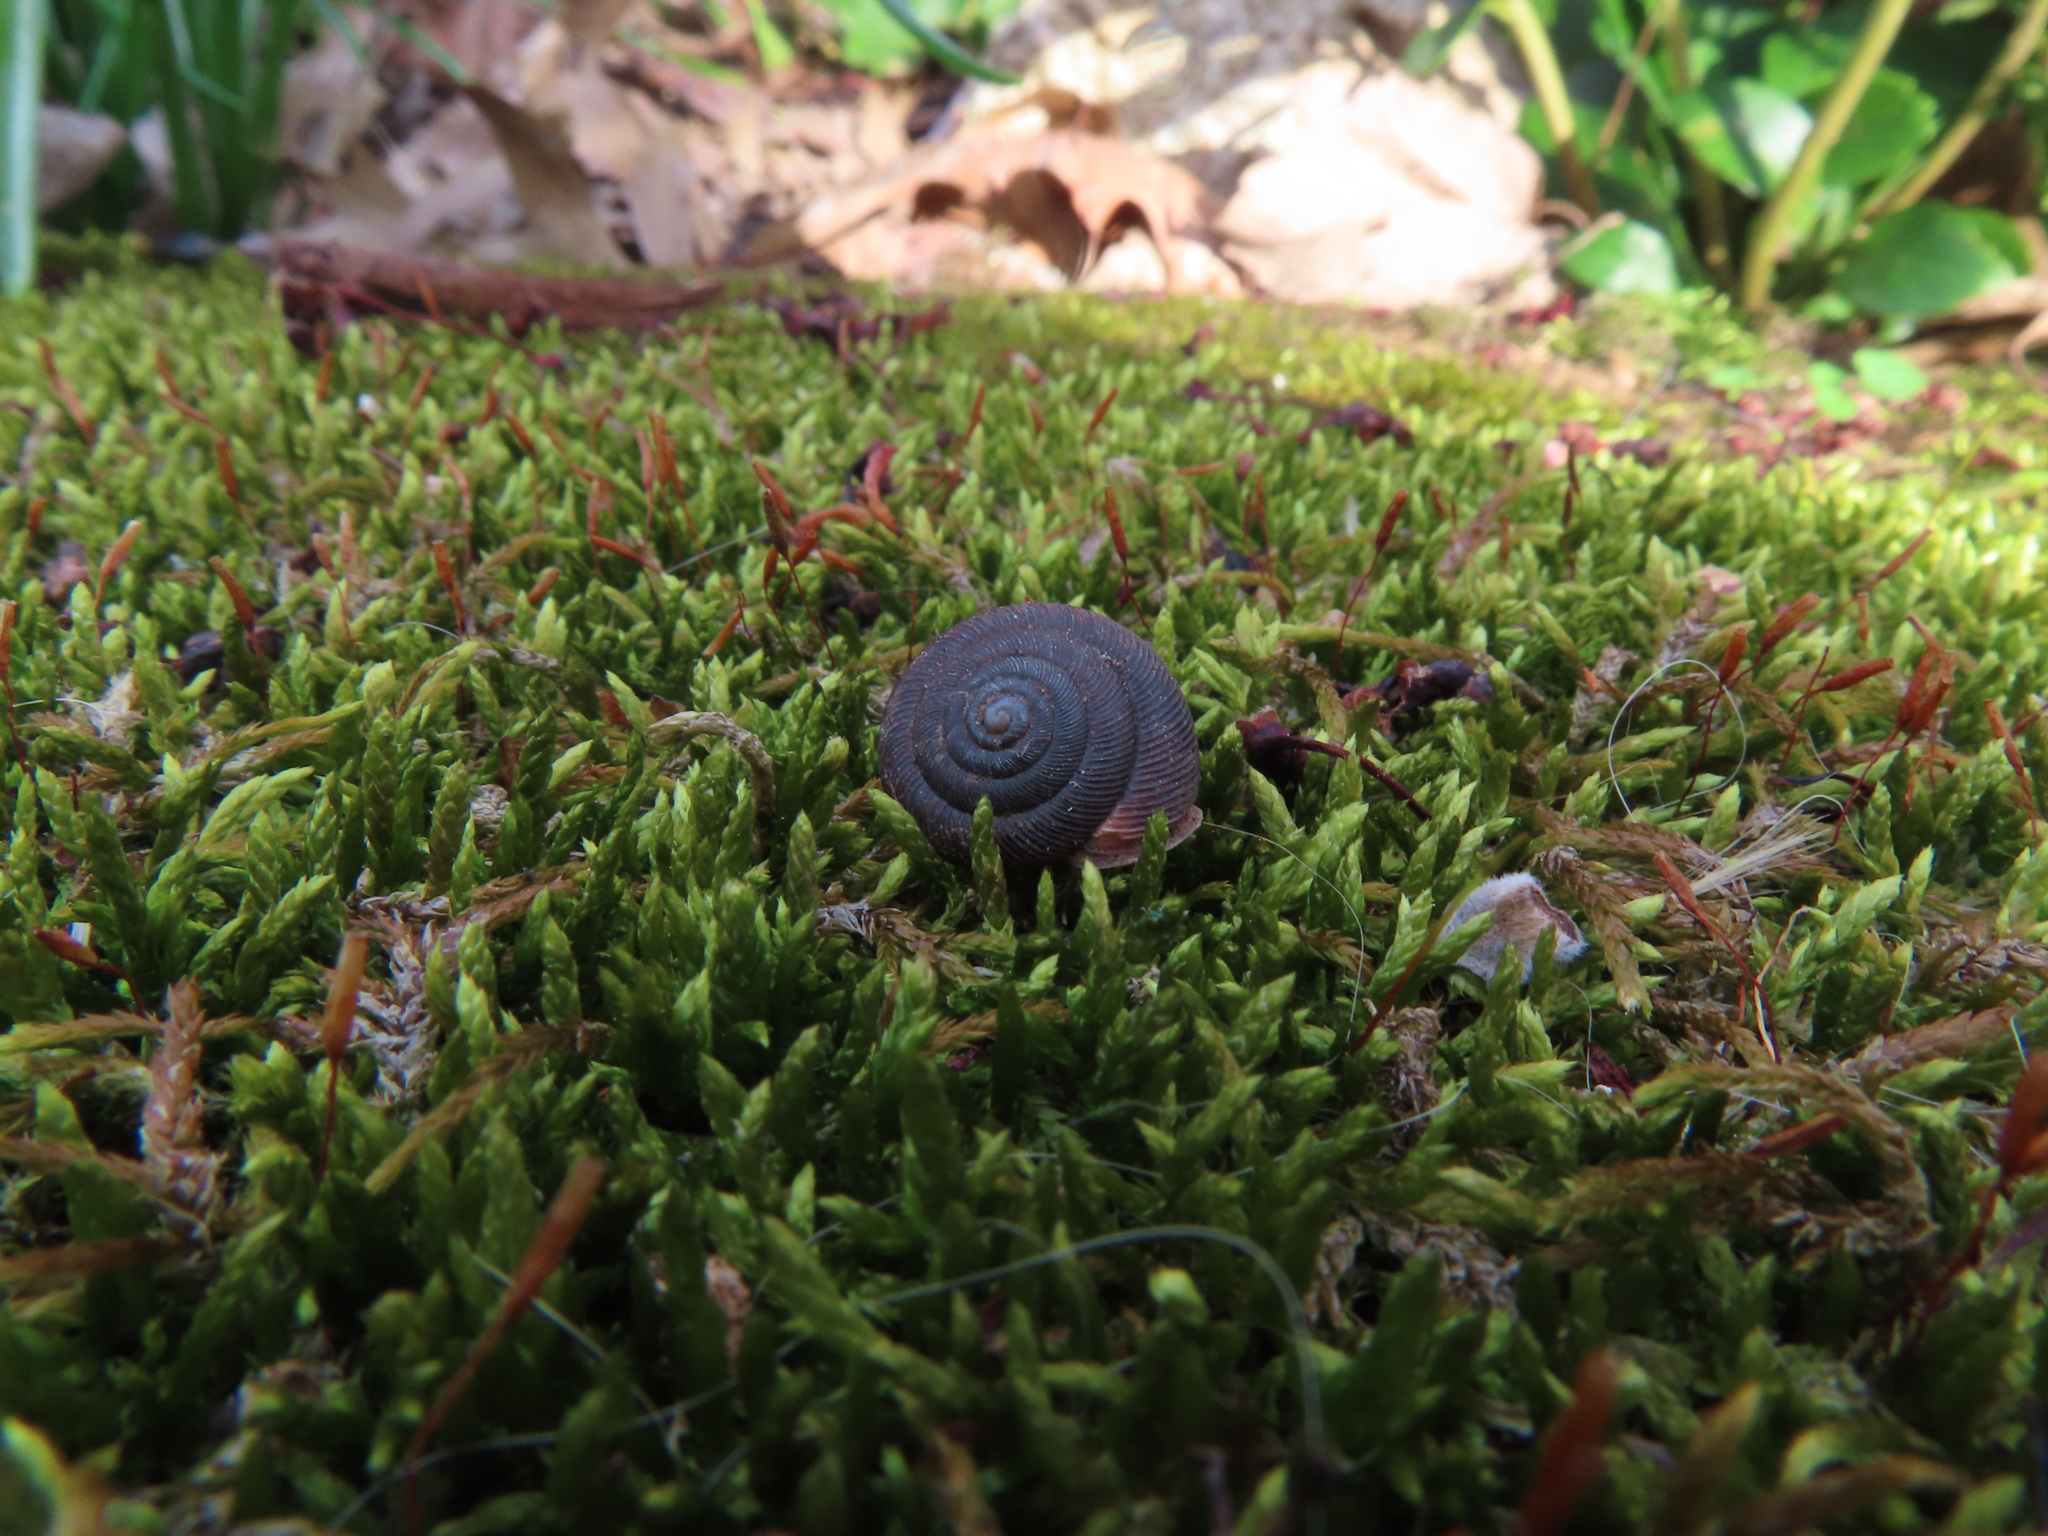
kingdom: Animalia
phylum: Mollusca
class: Gastropoda
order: Stylommatophora
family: Polygyridae
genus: Triodopsis
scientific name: Triodopsis hopetonensis
